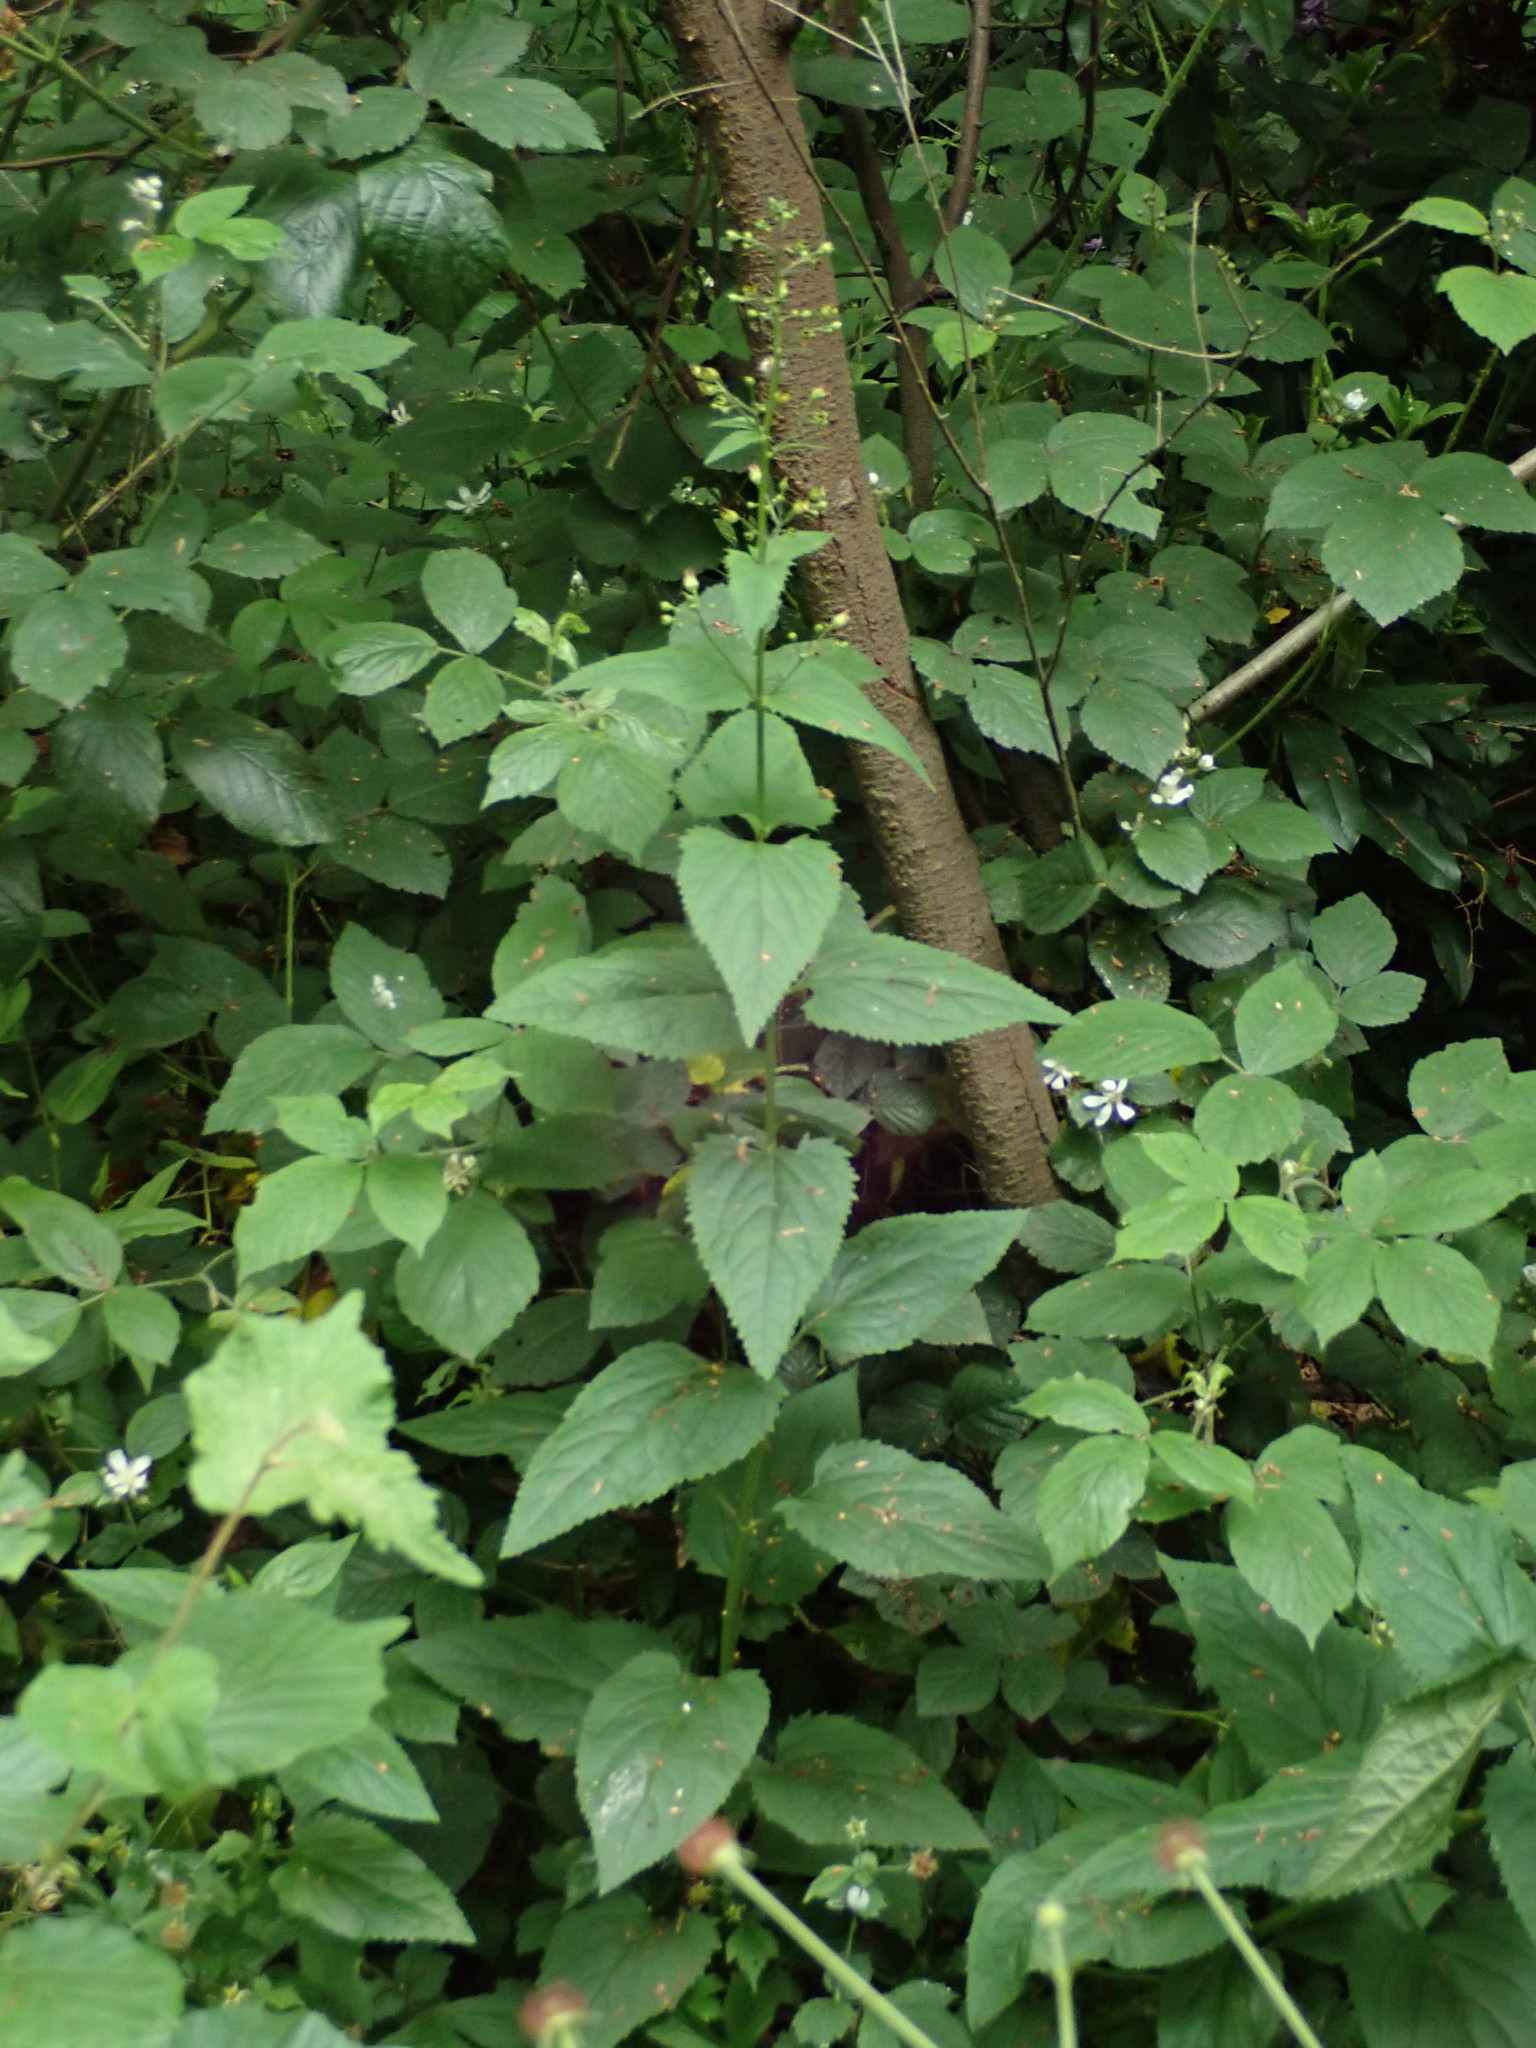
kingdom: Plantae
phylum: Tracheophyta
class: Magnoliopsida
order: Lamiales
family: Scrophulariaceae
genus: Scrophularia
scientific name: Scrophularia nodosa
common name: Common figwort
